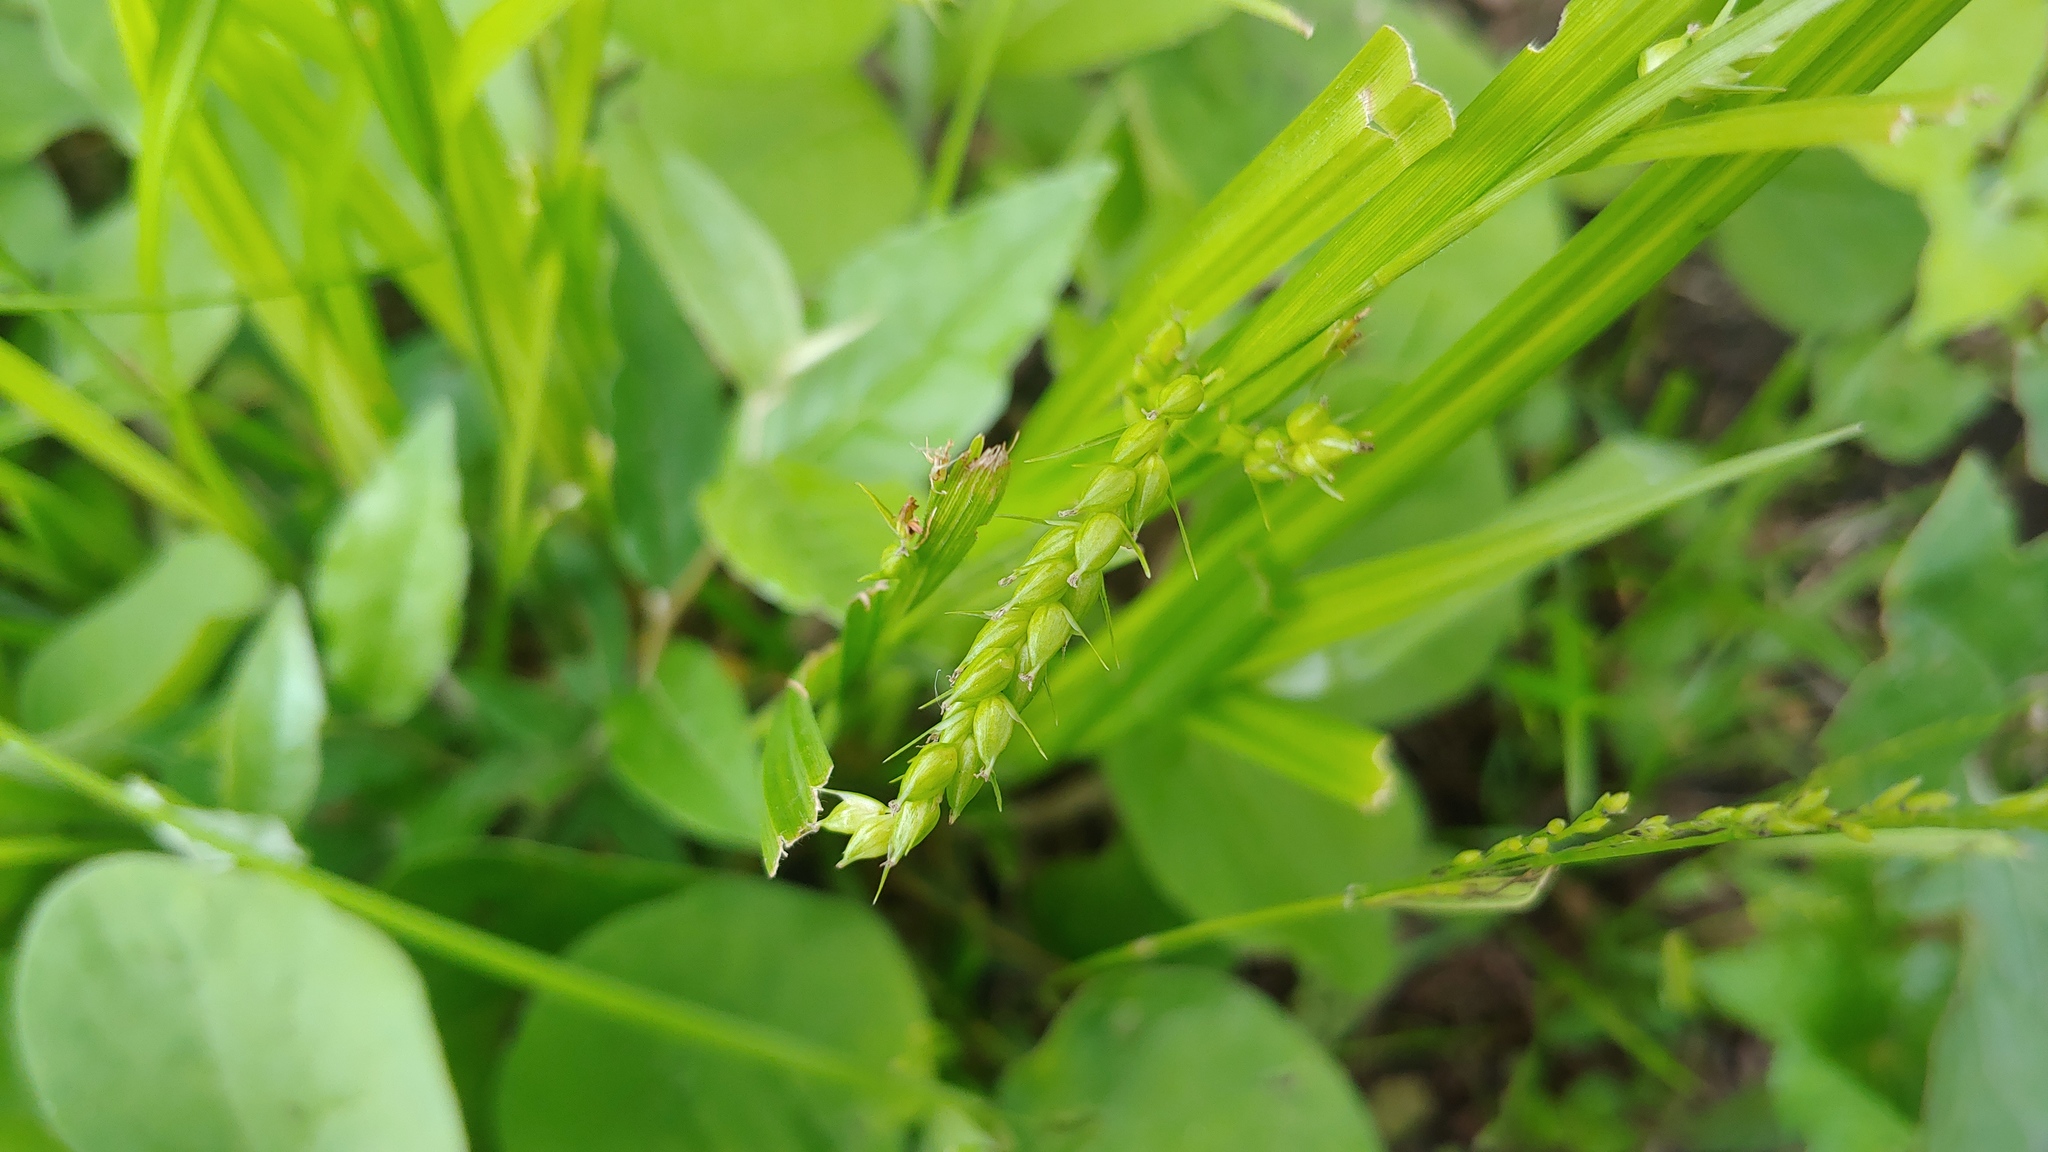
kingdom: Plantae
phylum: Tracheophyta
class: Liliopsida
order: Poales
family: Cyperaceae
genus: Carex
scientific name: Carex davisii
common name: Davis' sedge
